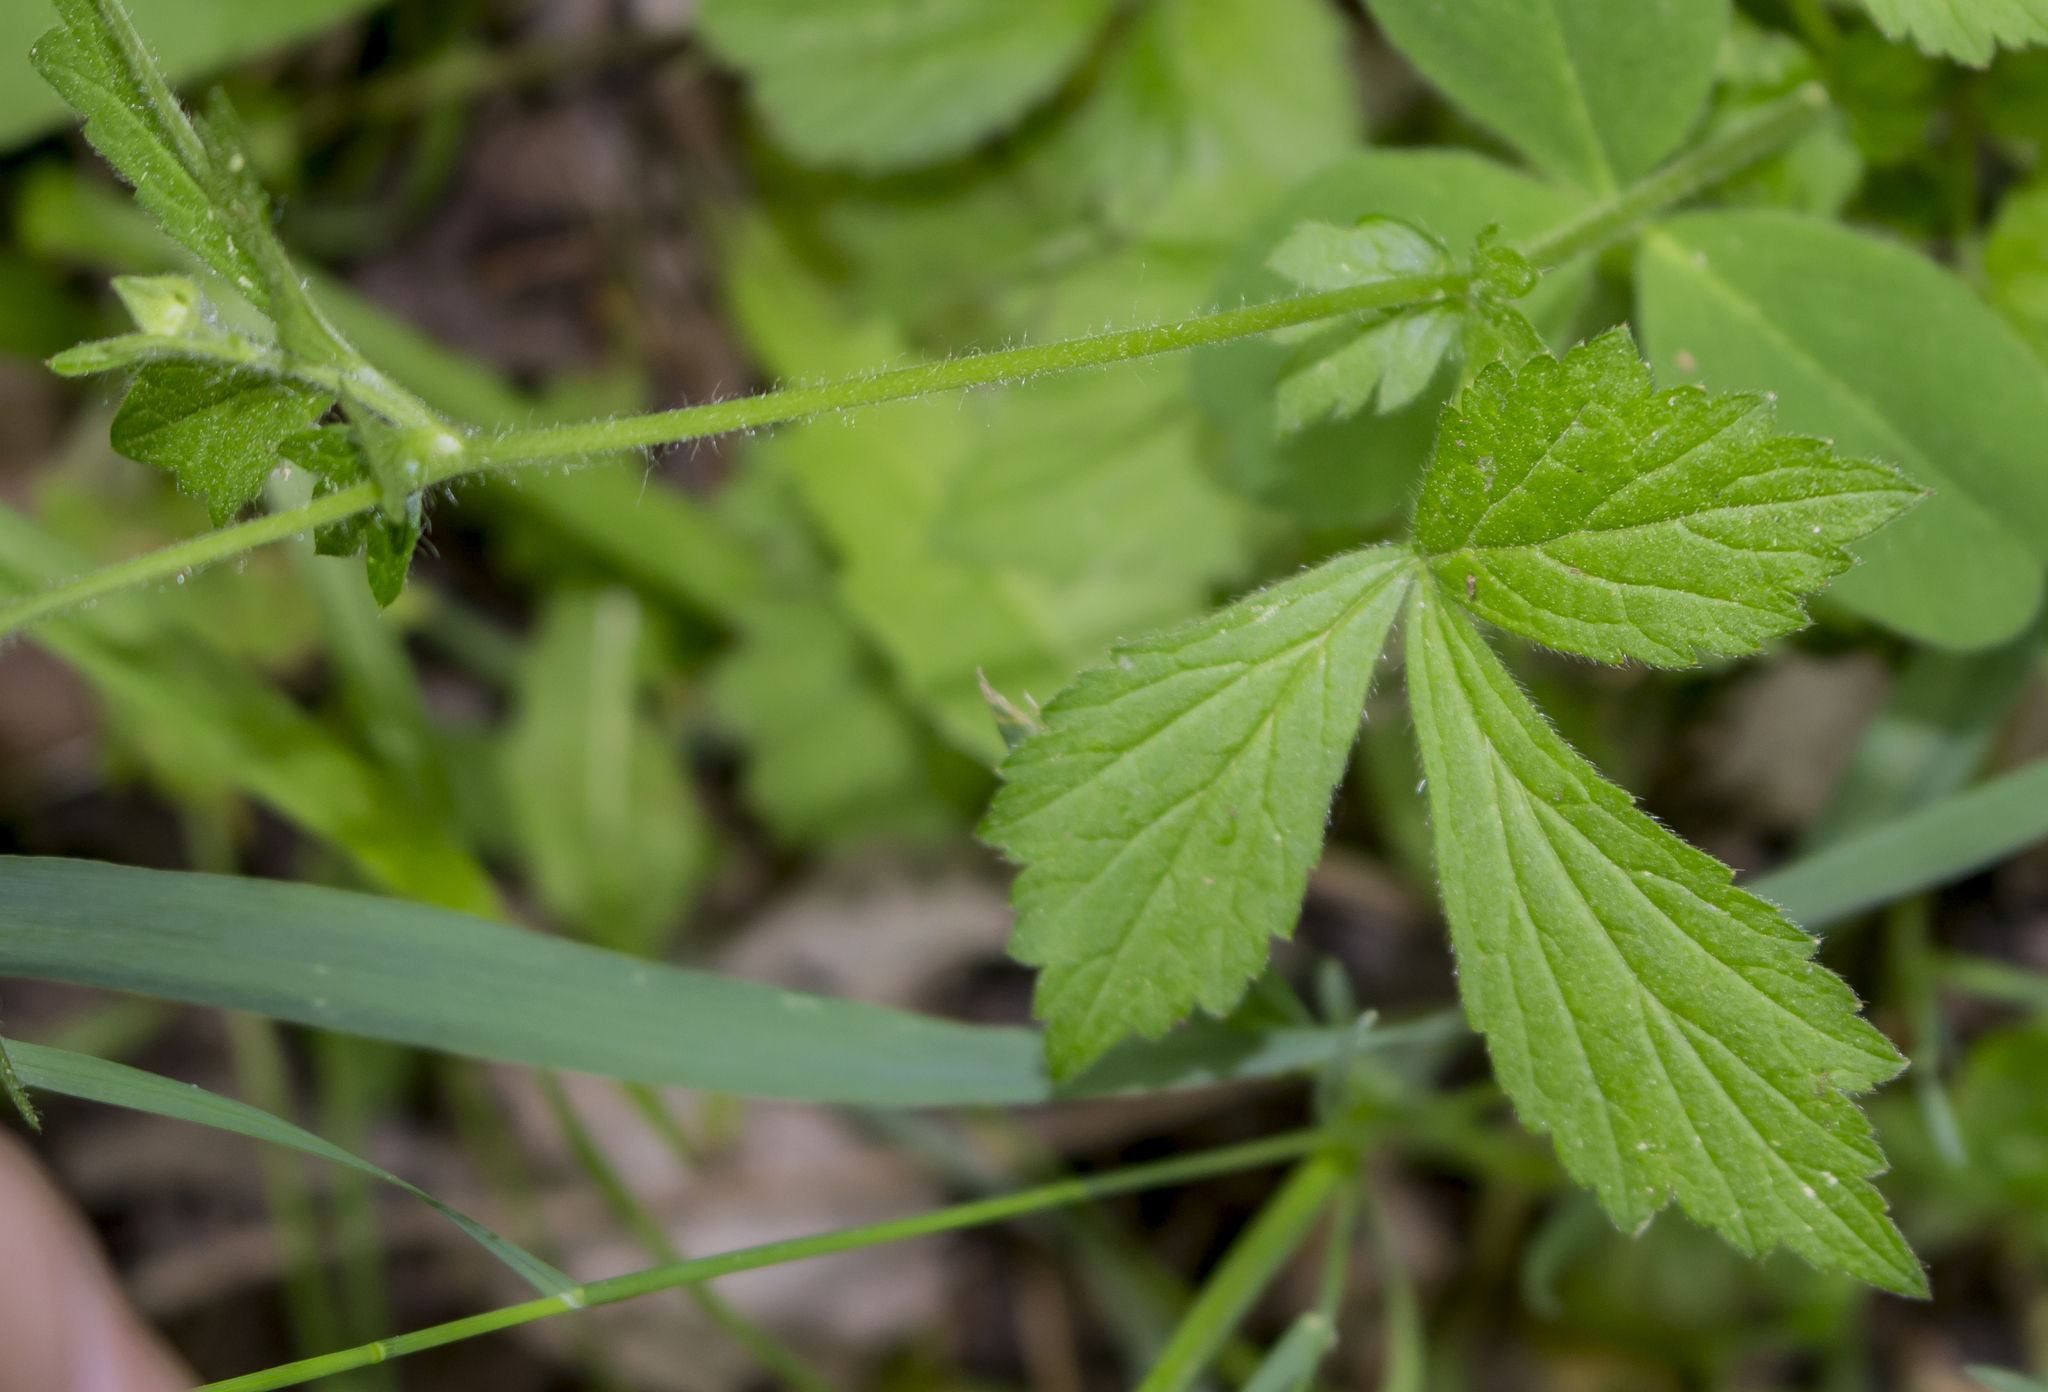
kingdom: Plantae
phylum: Tracheophyta
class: Magnoliopsida
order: Rosales
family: Rosaceae
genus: Geum
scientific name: Geum aleppicum
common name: Yellow avens
